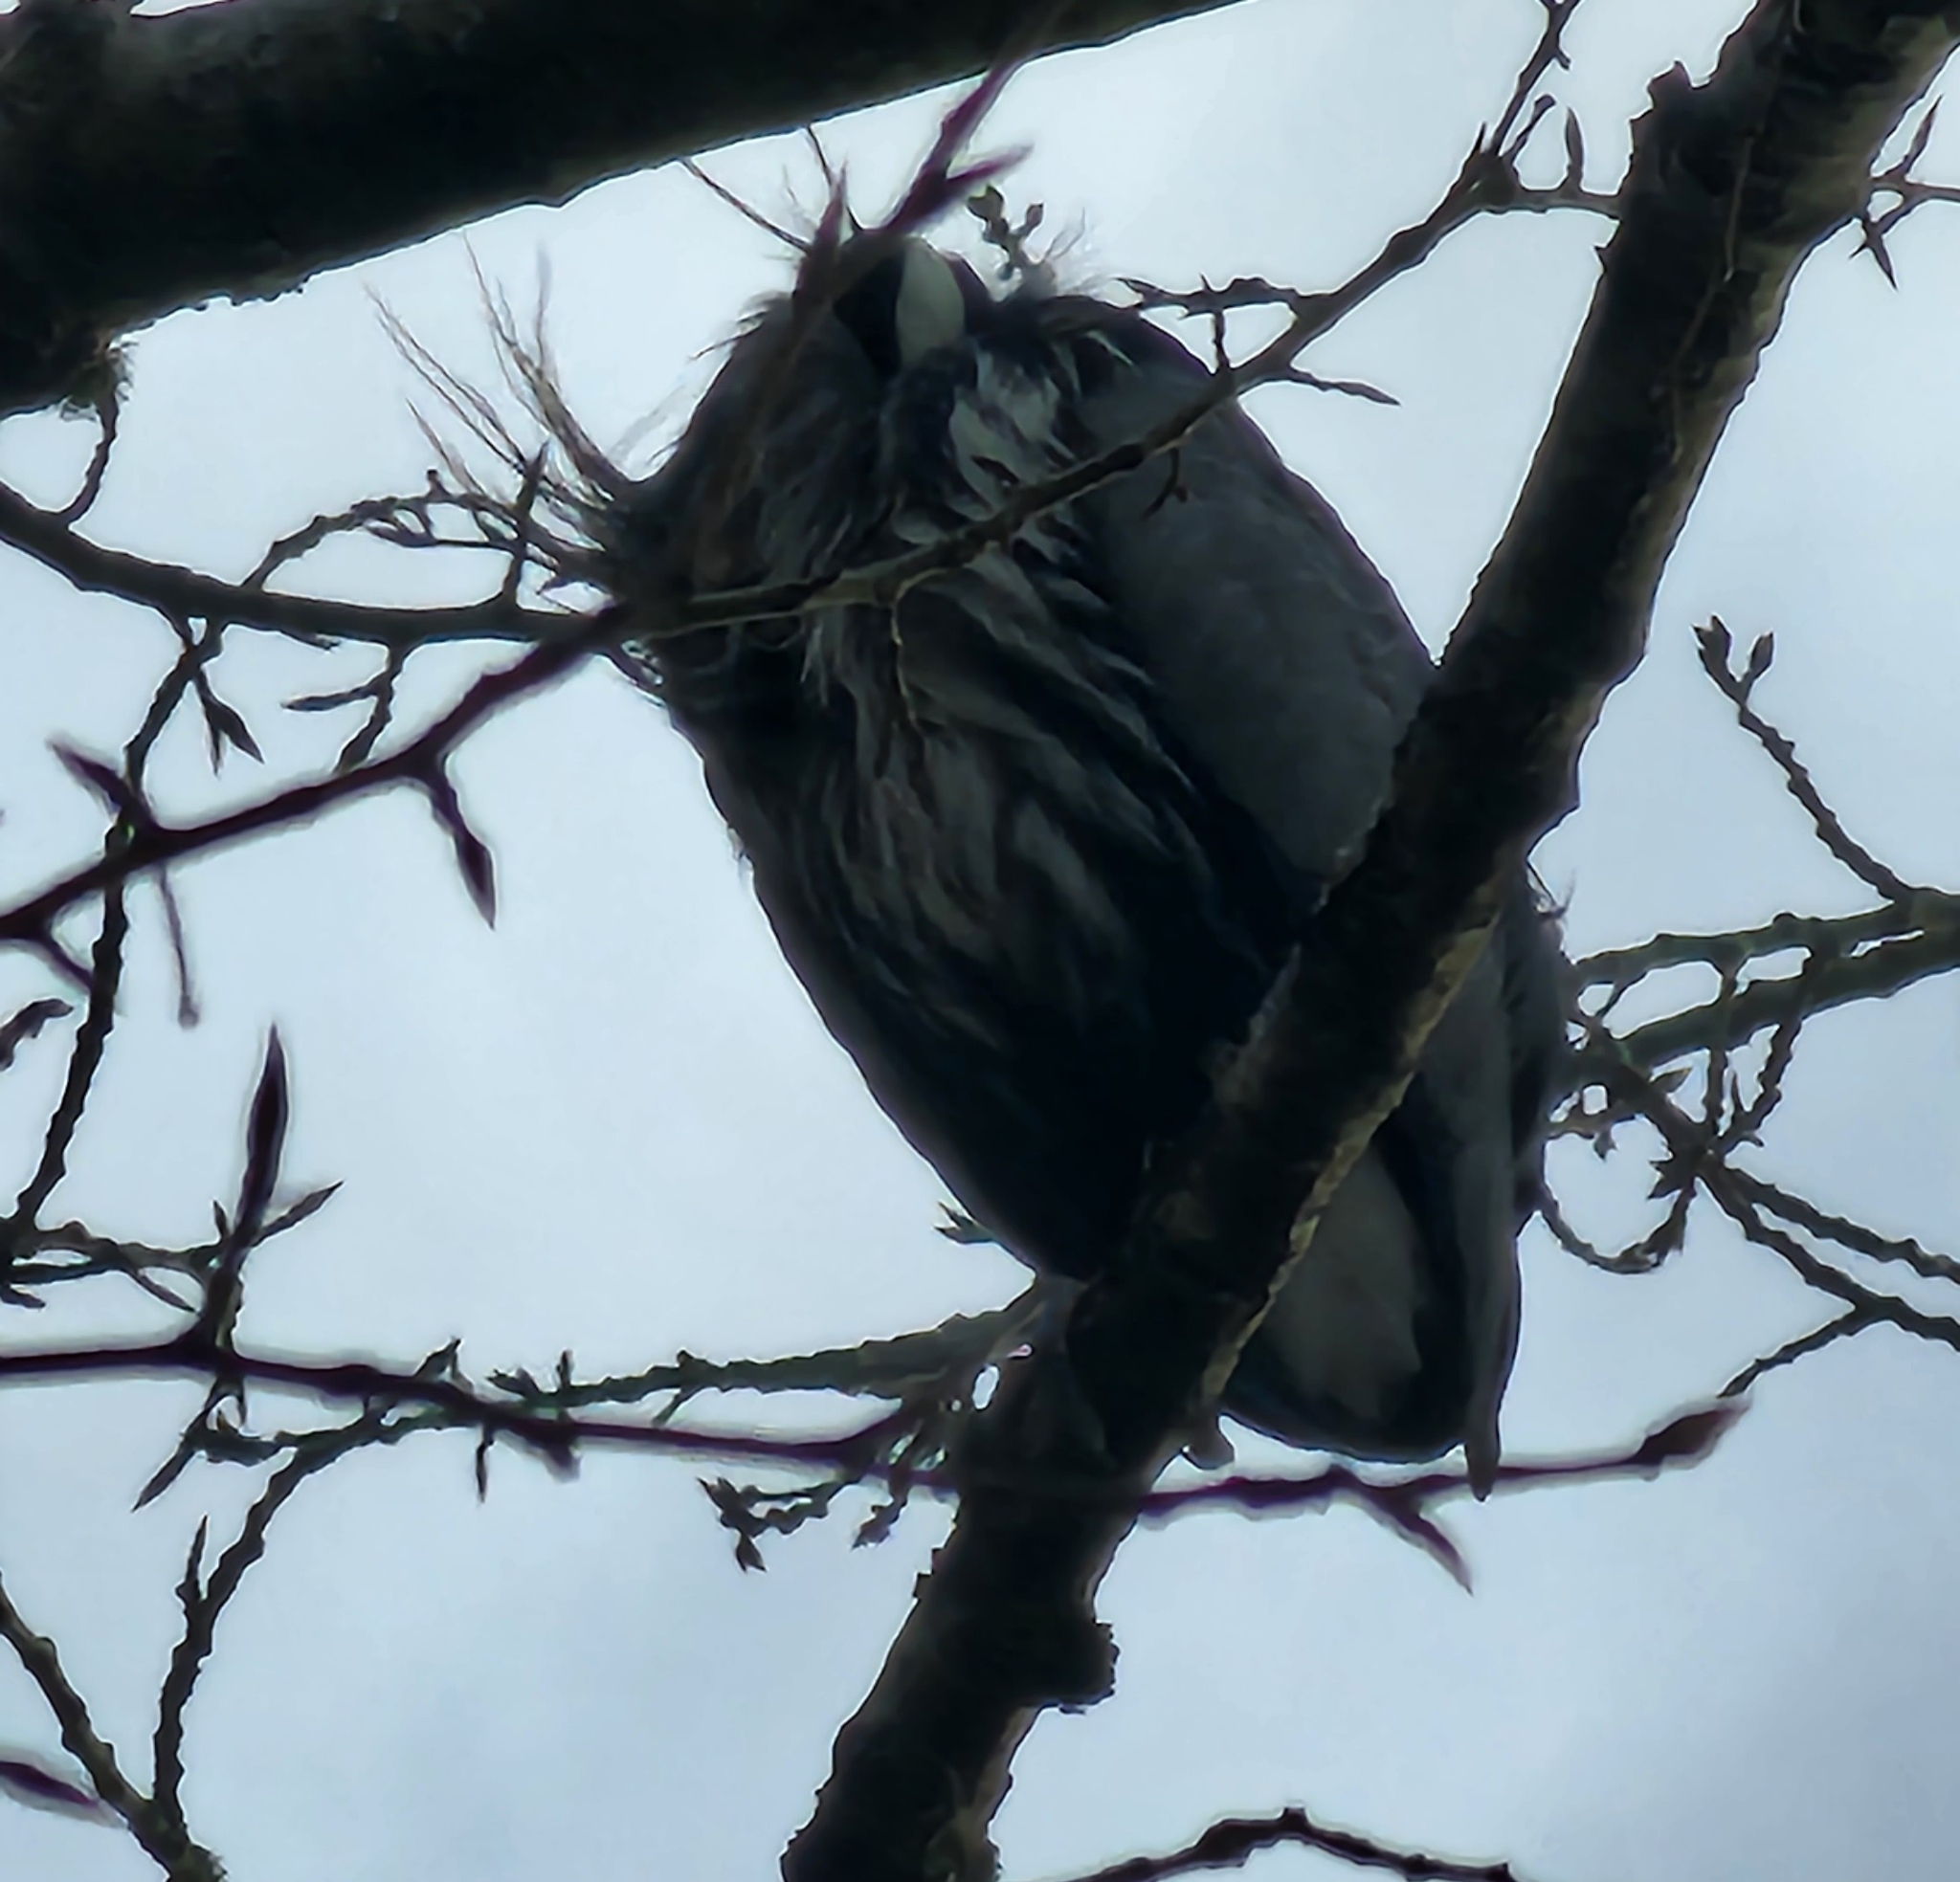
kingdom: Animalia
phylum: Chordata
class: Aves
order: Pelecaniformes
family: Ardeidae
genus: Ardea
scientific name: Ardea herodias
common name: Great blue heron
